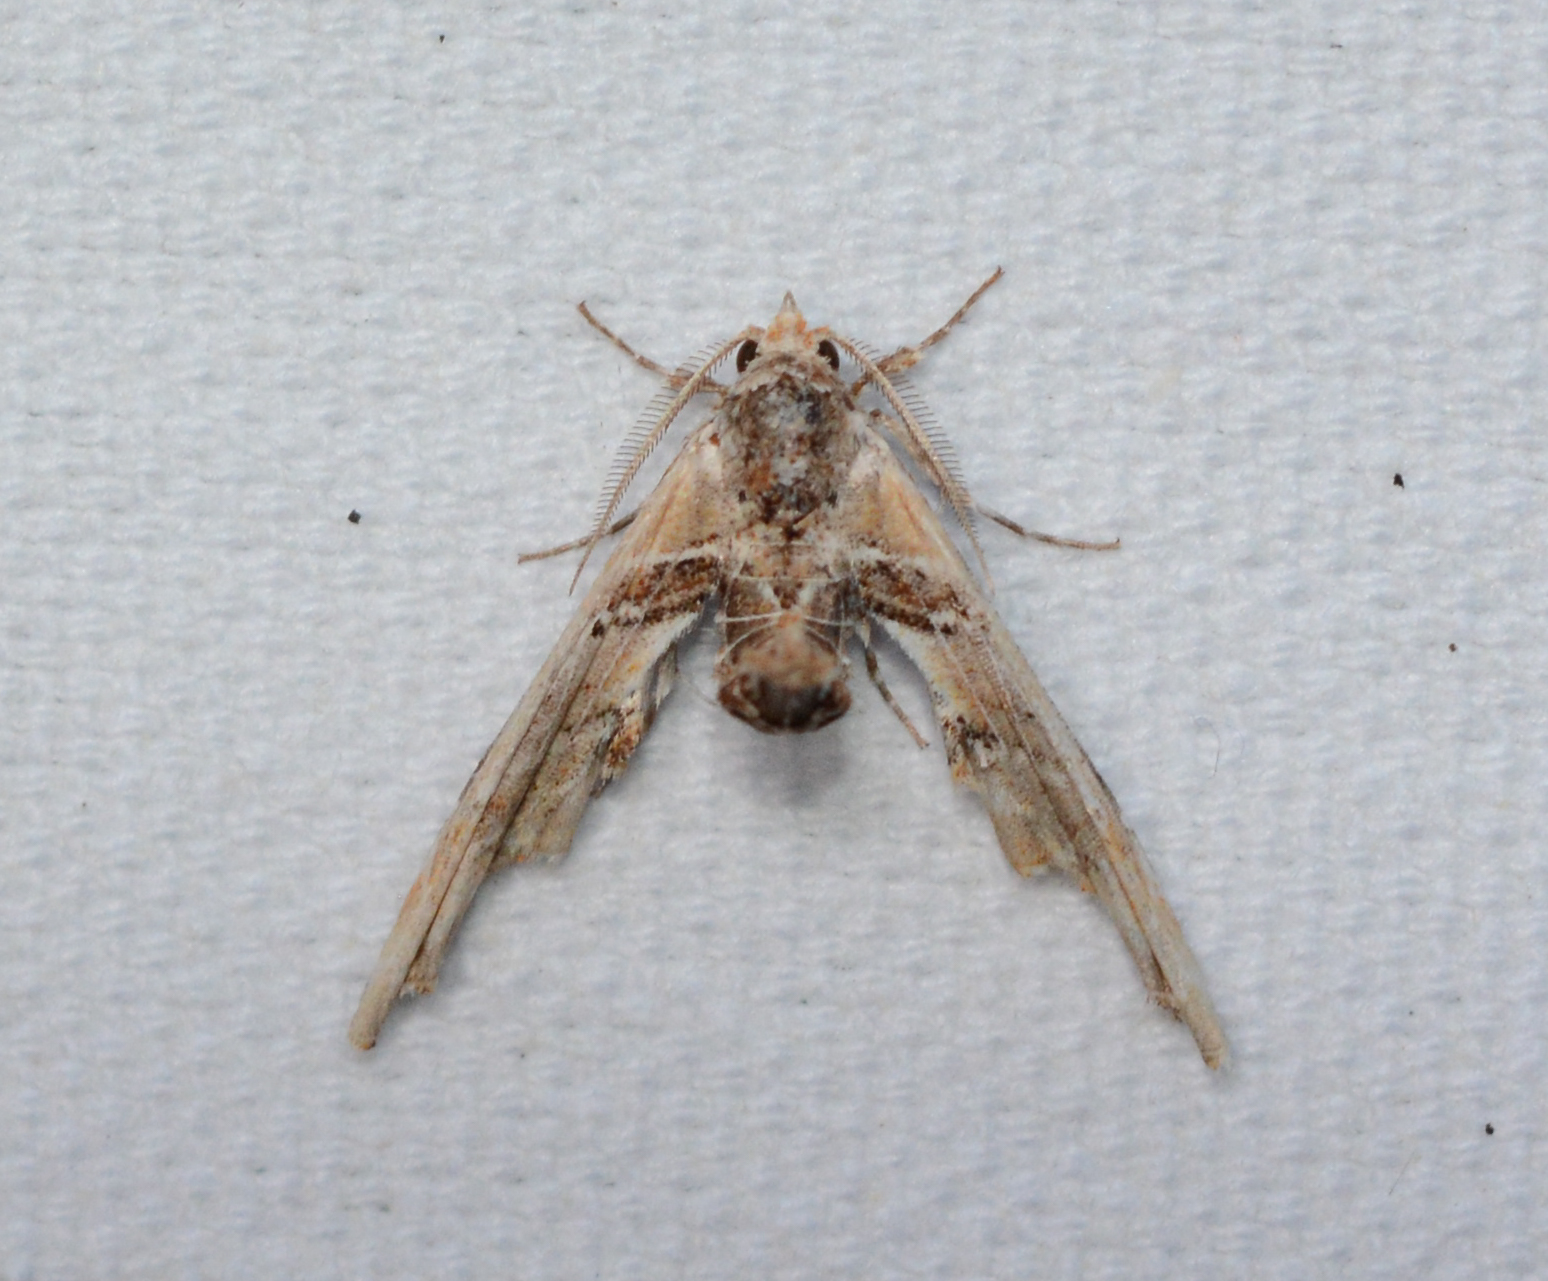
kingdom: Animalia
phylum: Arthropoda
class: Insecta
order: Lepidoptera
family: Euteliidae
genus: Marathyssa
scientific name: Marathyssa basalis
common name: Light marathyssa moth
